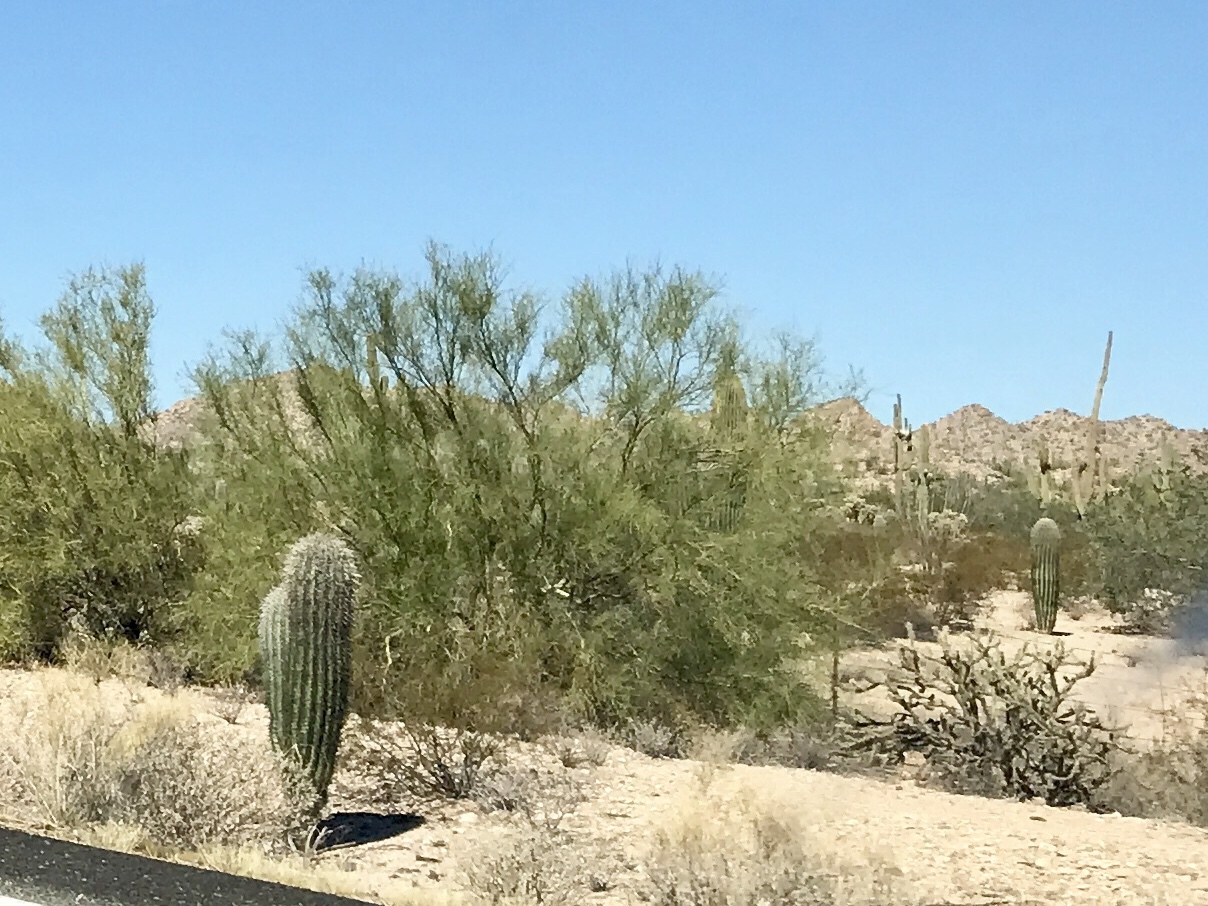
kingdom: Plantae
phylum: Tracheophyta
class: Magnoliopsida
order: Caryophyllales
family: Cactaceae
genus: Carnegiea
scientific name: Carnegiea gigantea
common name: Saguaro
